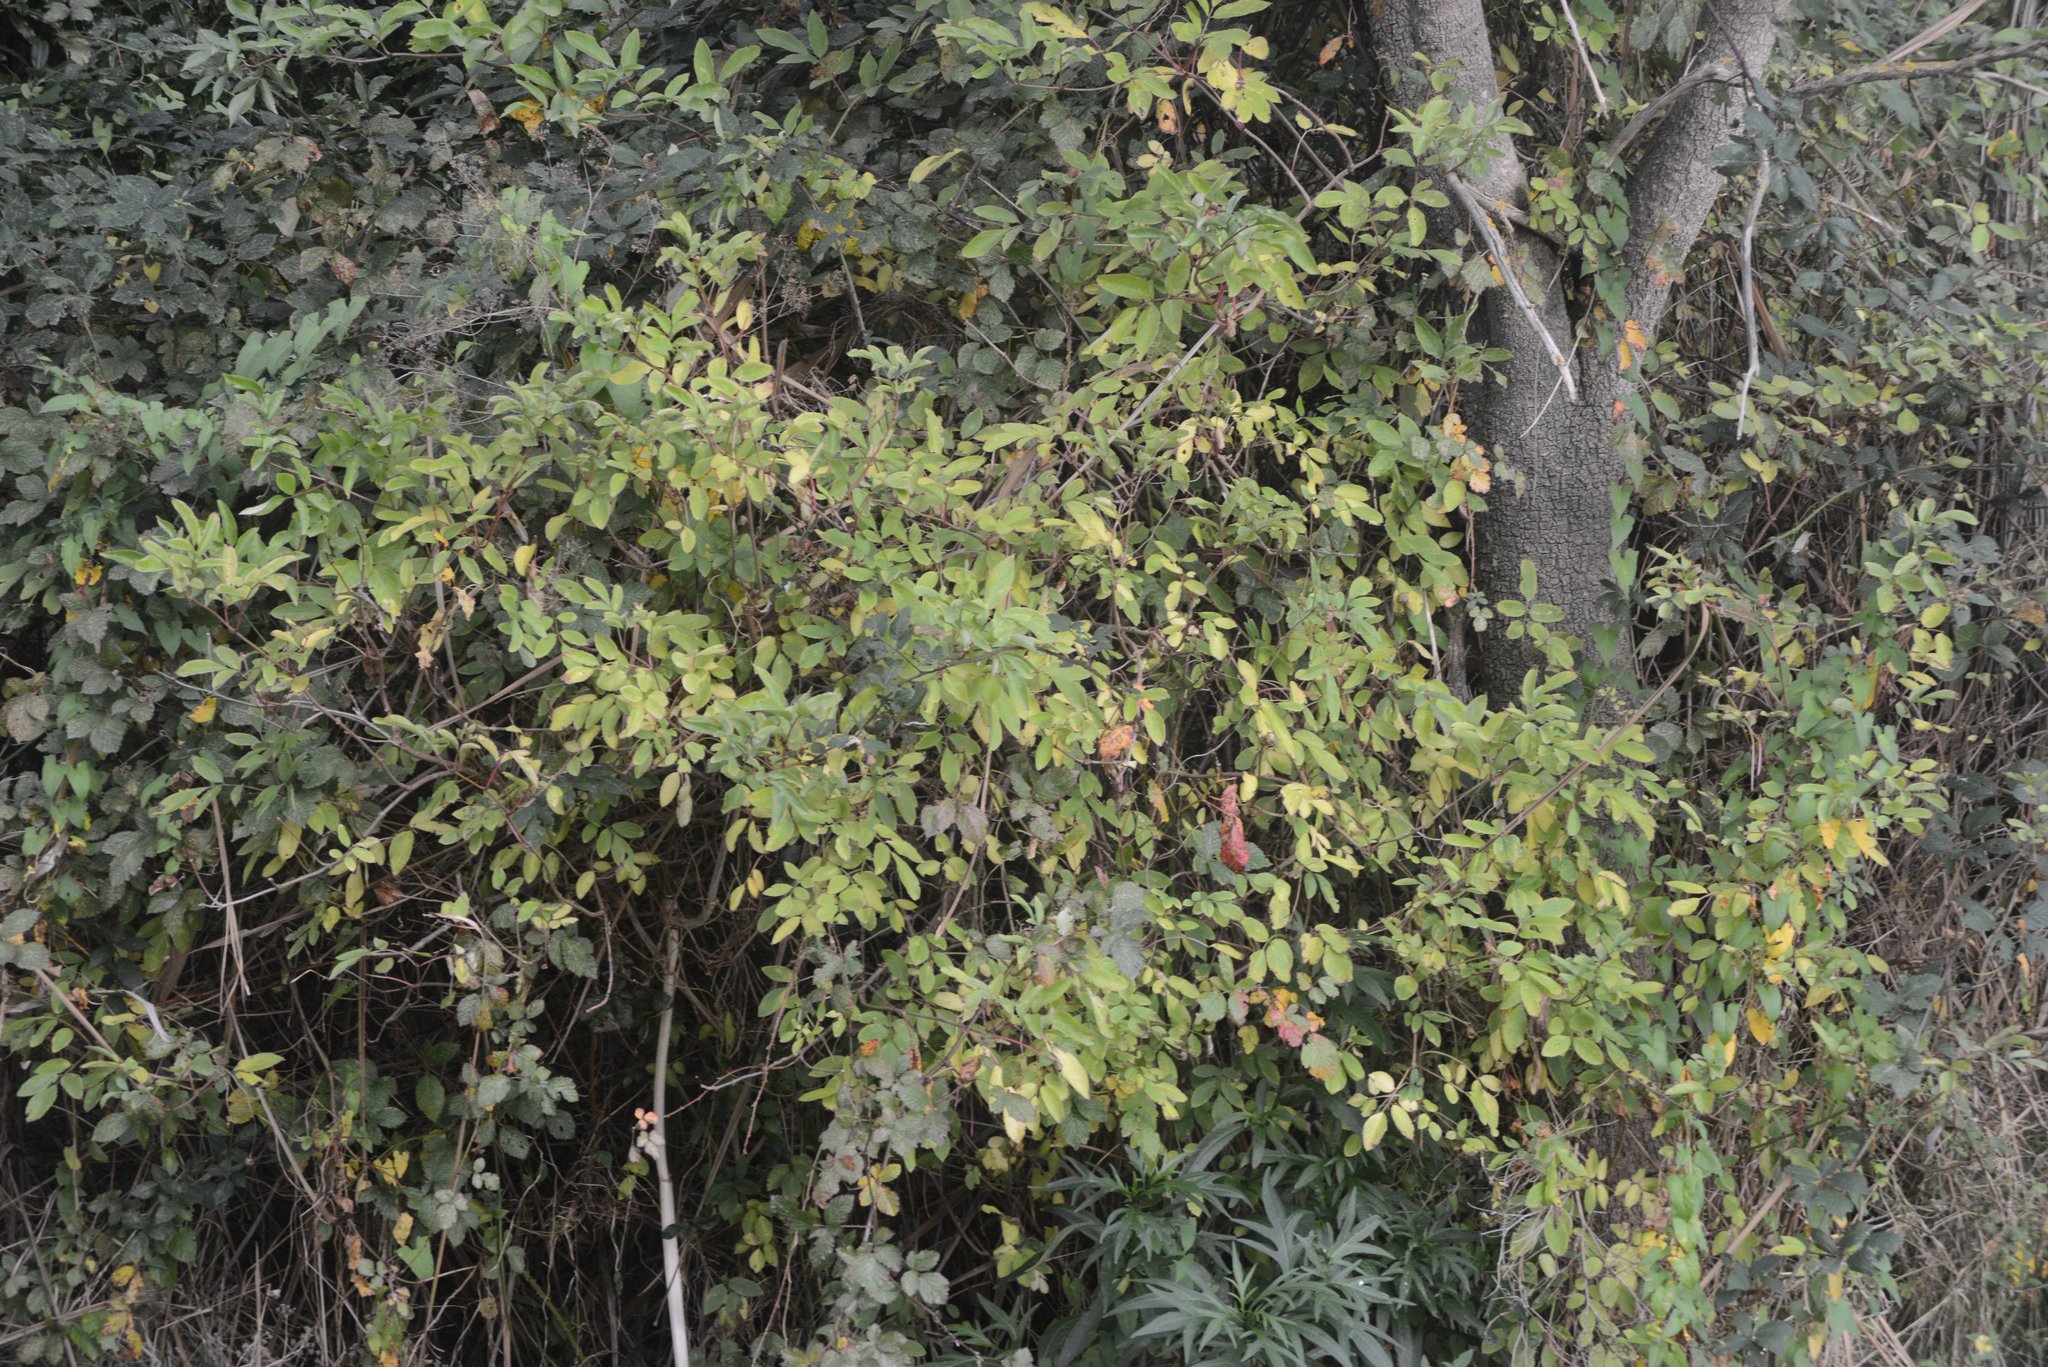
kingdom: Plantae
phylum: Tracheophyta
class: Magnoliopsida
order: Dipsacales
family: Viburnaceae
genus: Sambucus
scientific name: Sambucus nigra
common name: Elder
